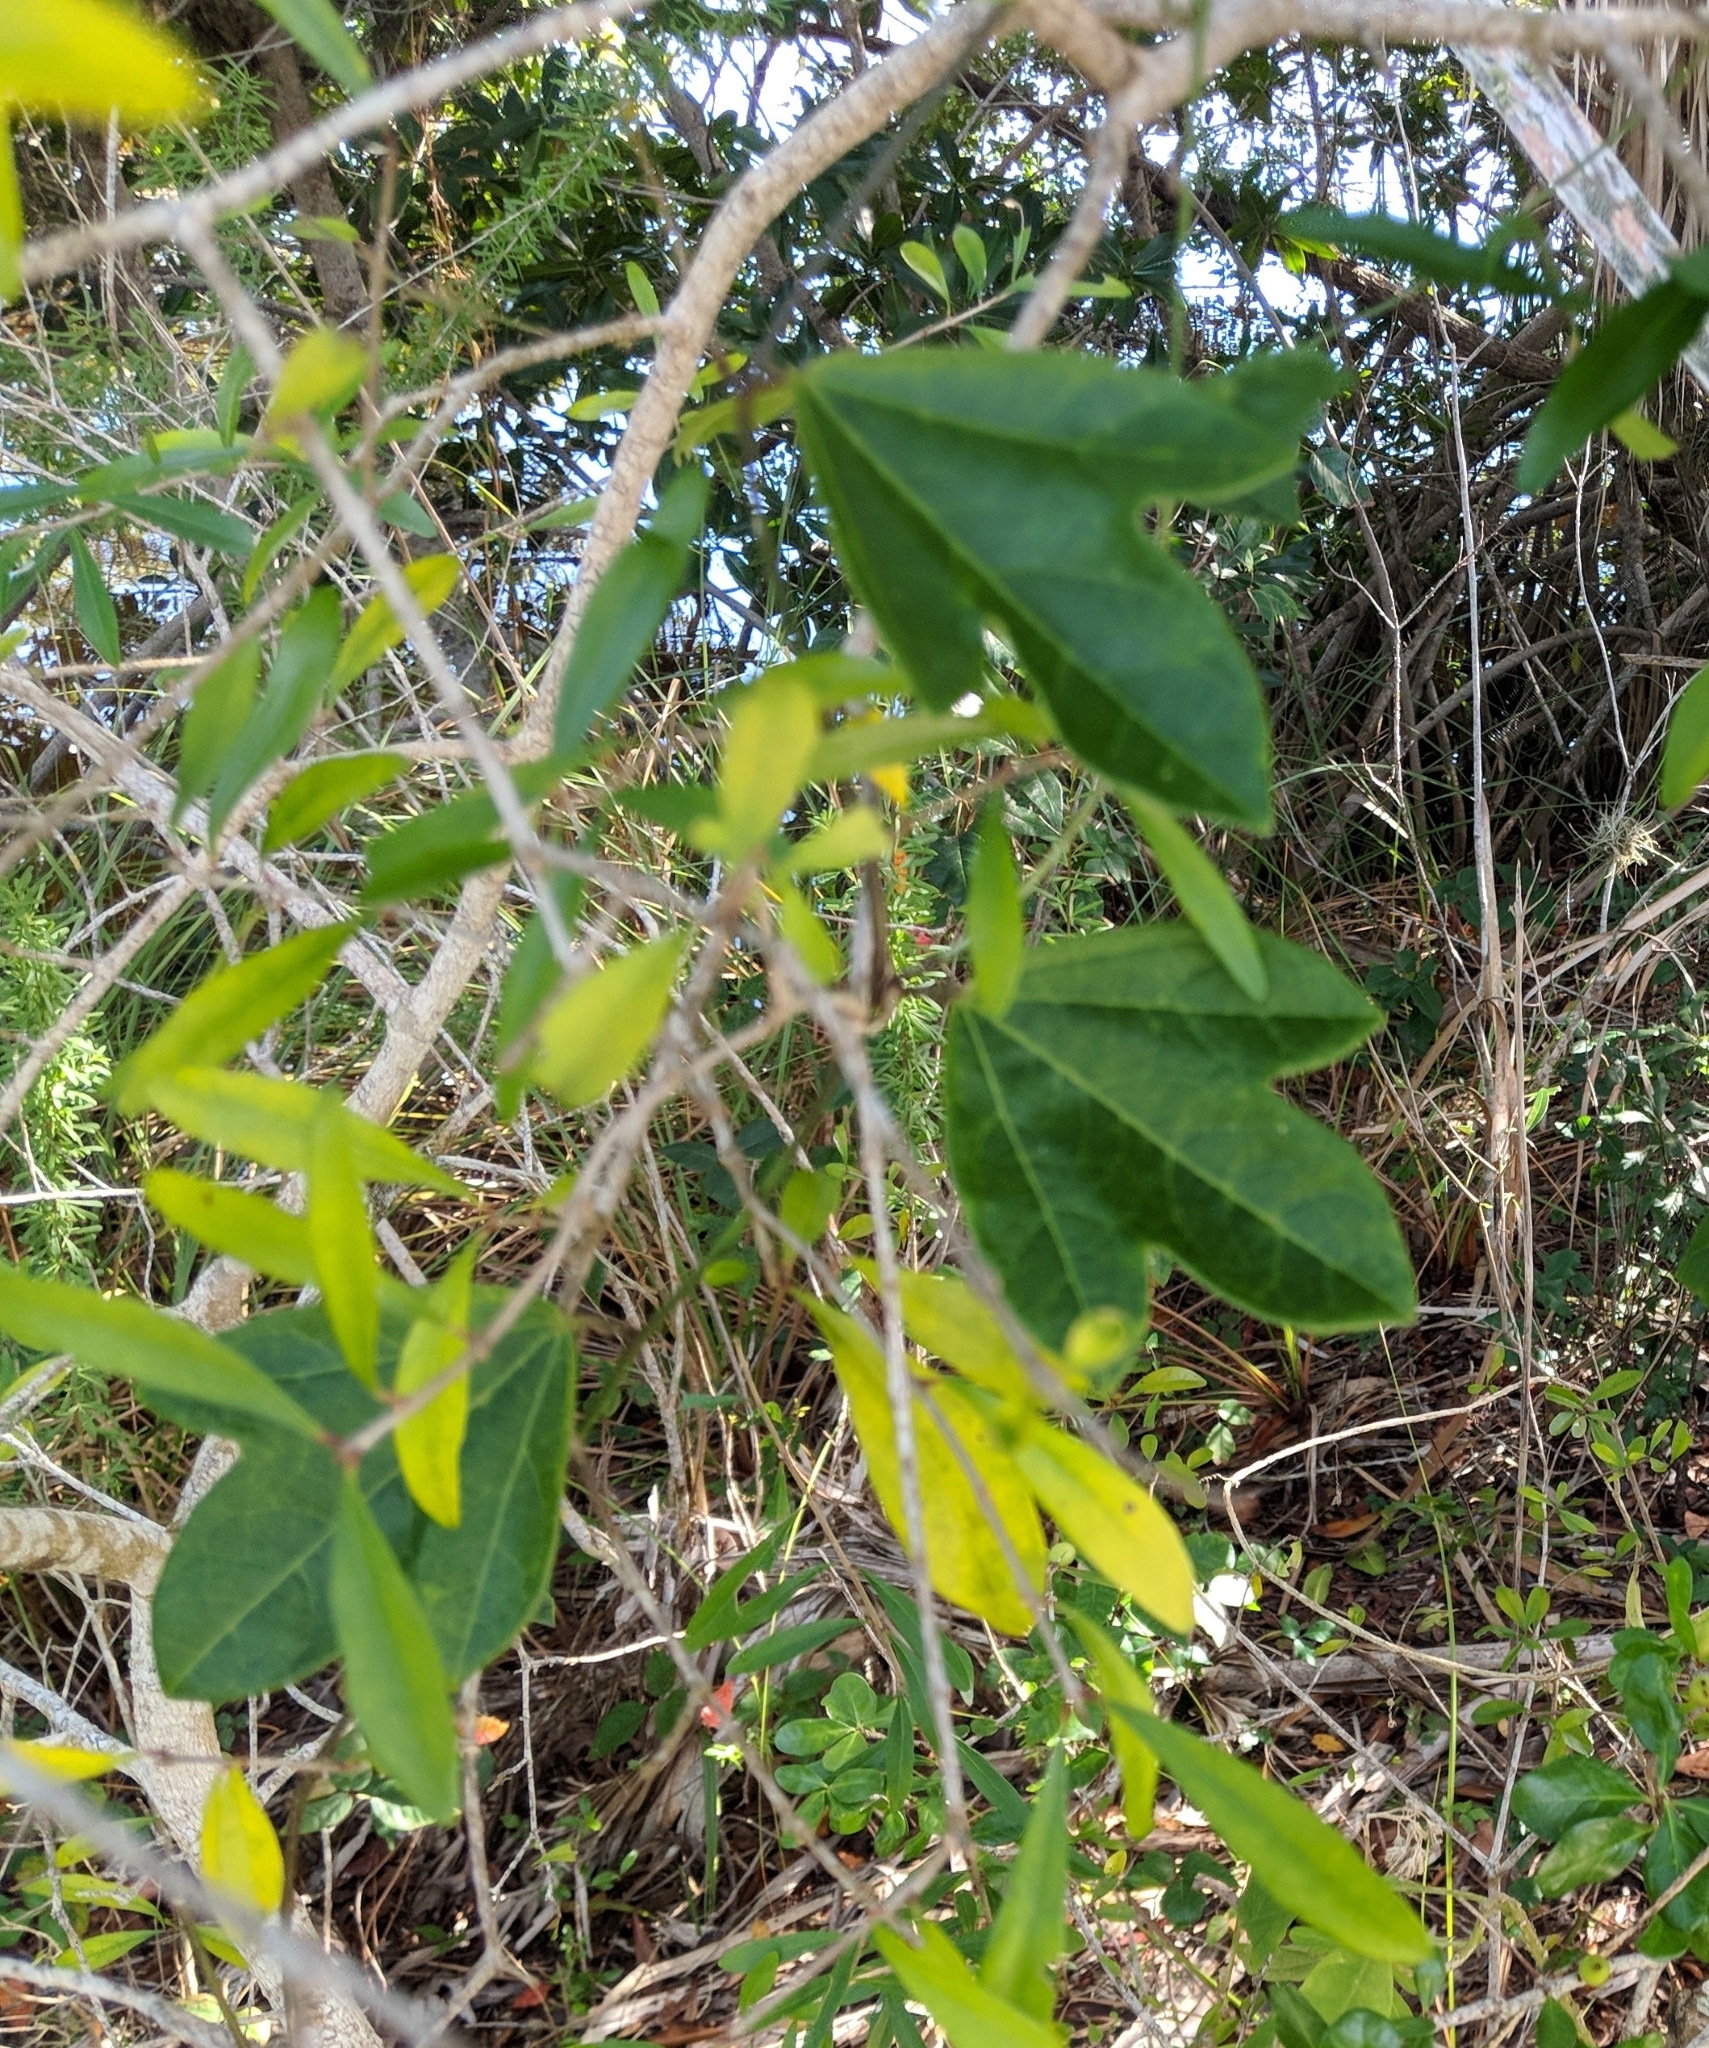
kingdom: Plantae
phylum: Tracheophyta
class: Magnoliopsida
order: Malpighiales
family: Passifloraceae
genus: Passiflora
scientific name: Passiflora pallida
